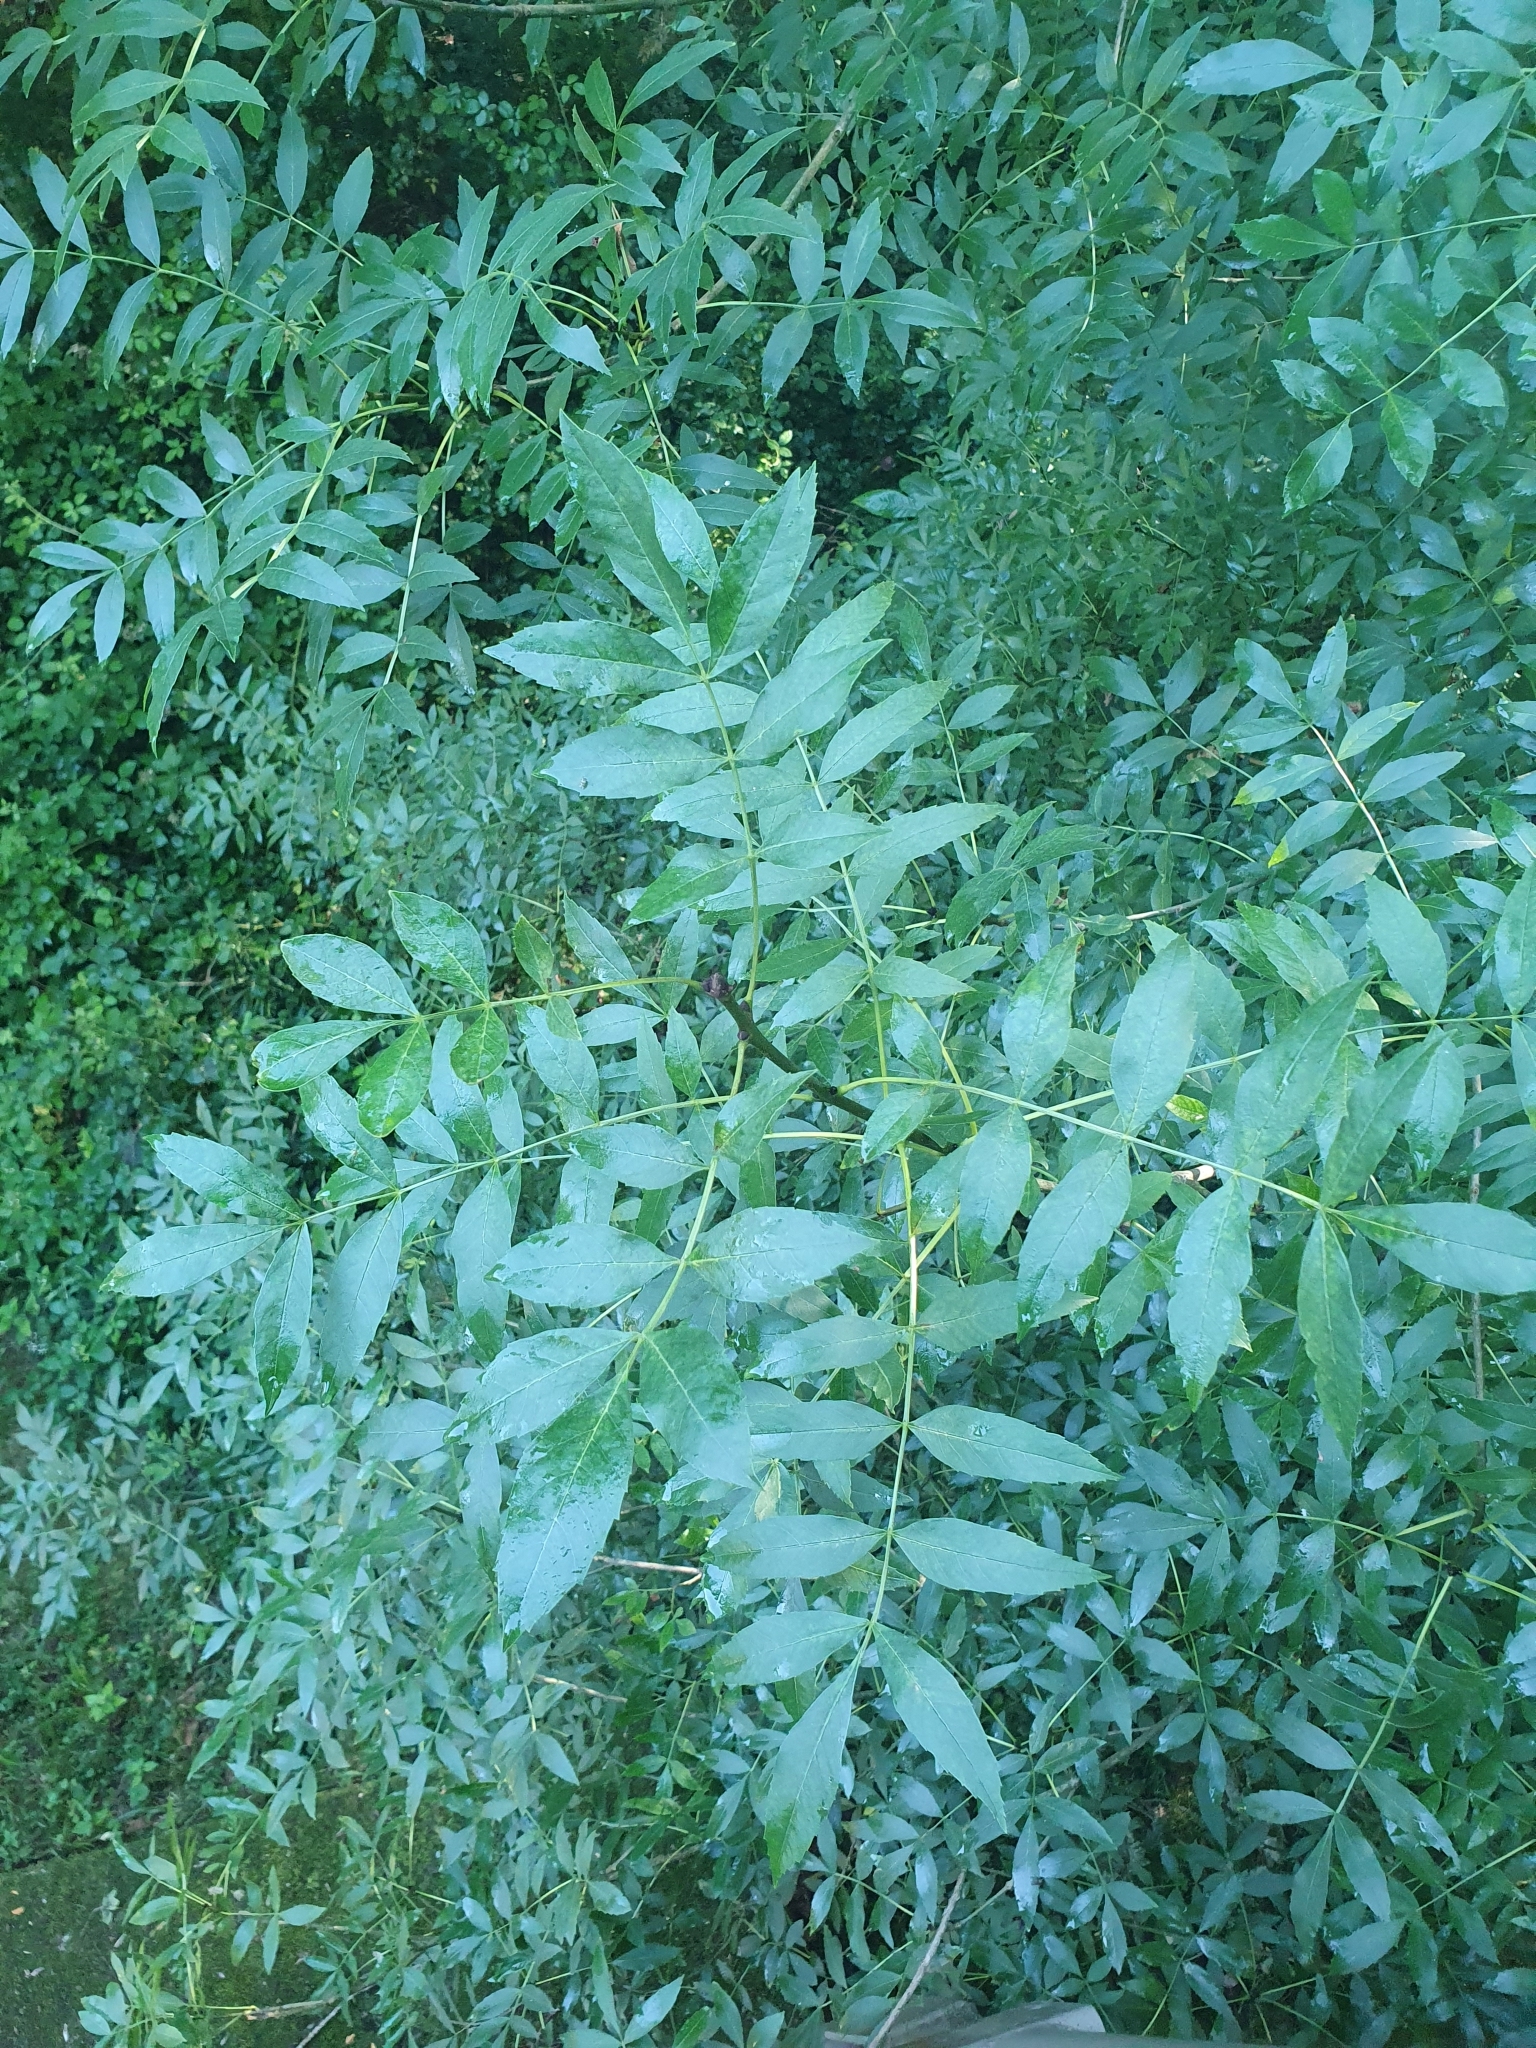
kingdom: Plantae
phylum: Tracheophyta
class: Magnoliopsida
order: Lamiales
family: Oleaceae
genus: Fraxinus
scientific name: Fraxinus excelsior
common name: European ash
